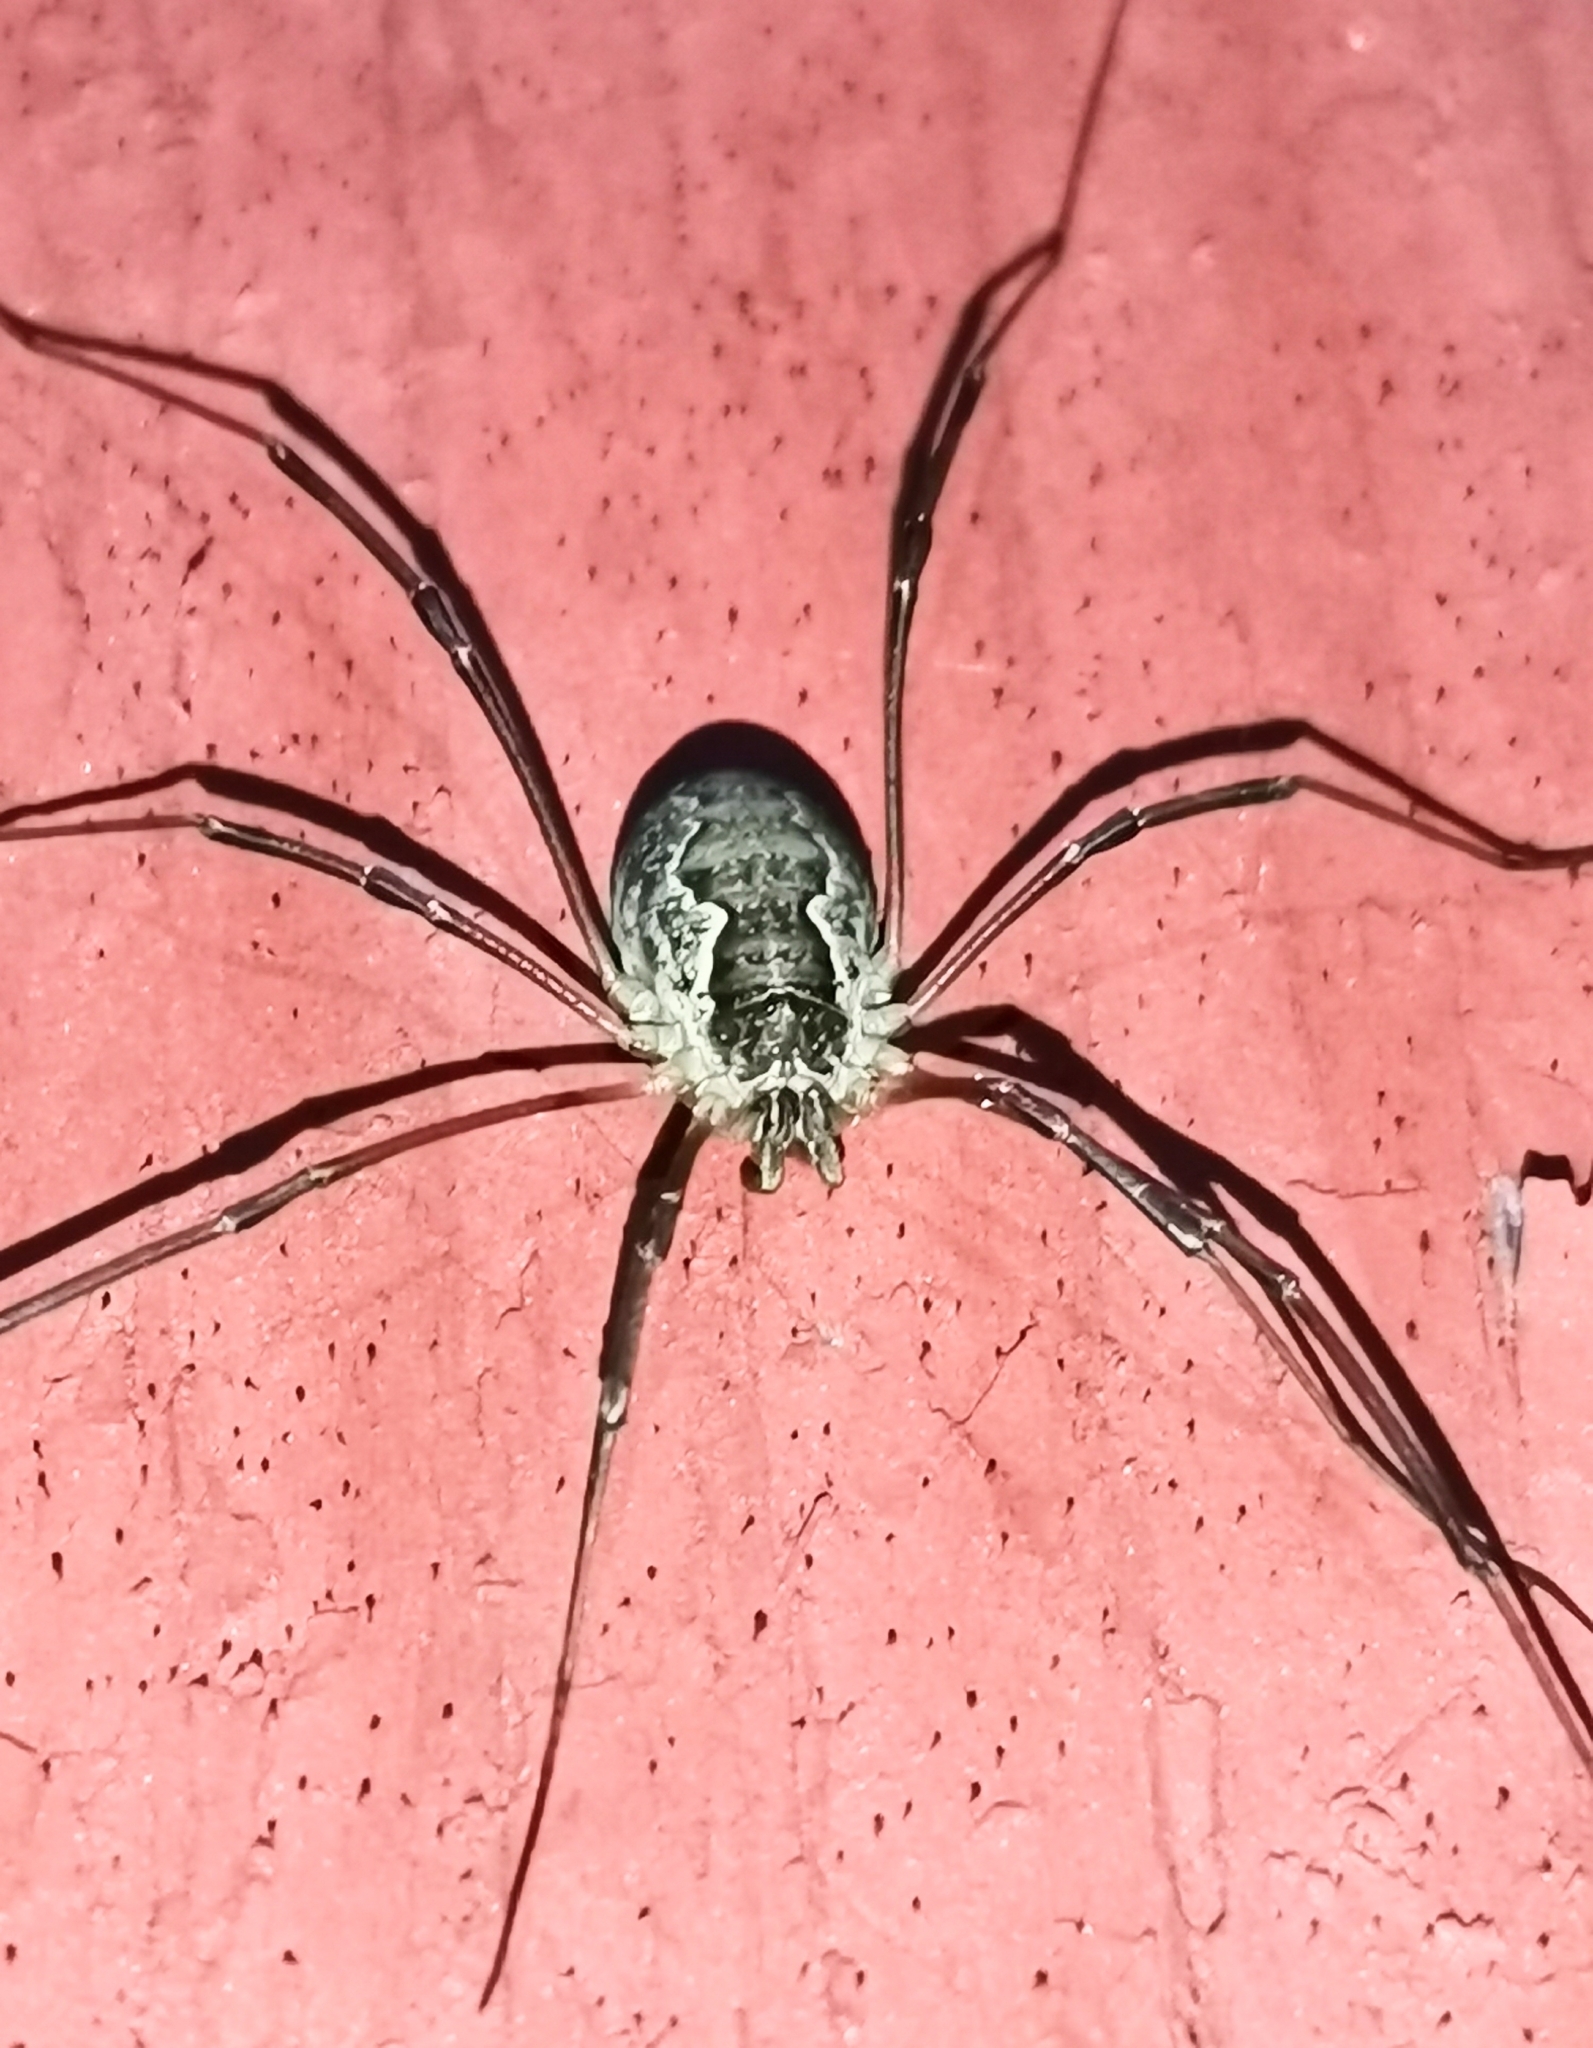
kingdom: Animalia
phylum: Arthropoda
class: Arachnida
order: Opiliones
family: Phalangiidae
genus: Mitopus
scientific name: Mitopus morio
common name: Saddleback harvestman
